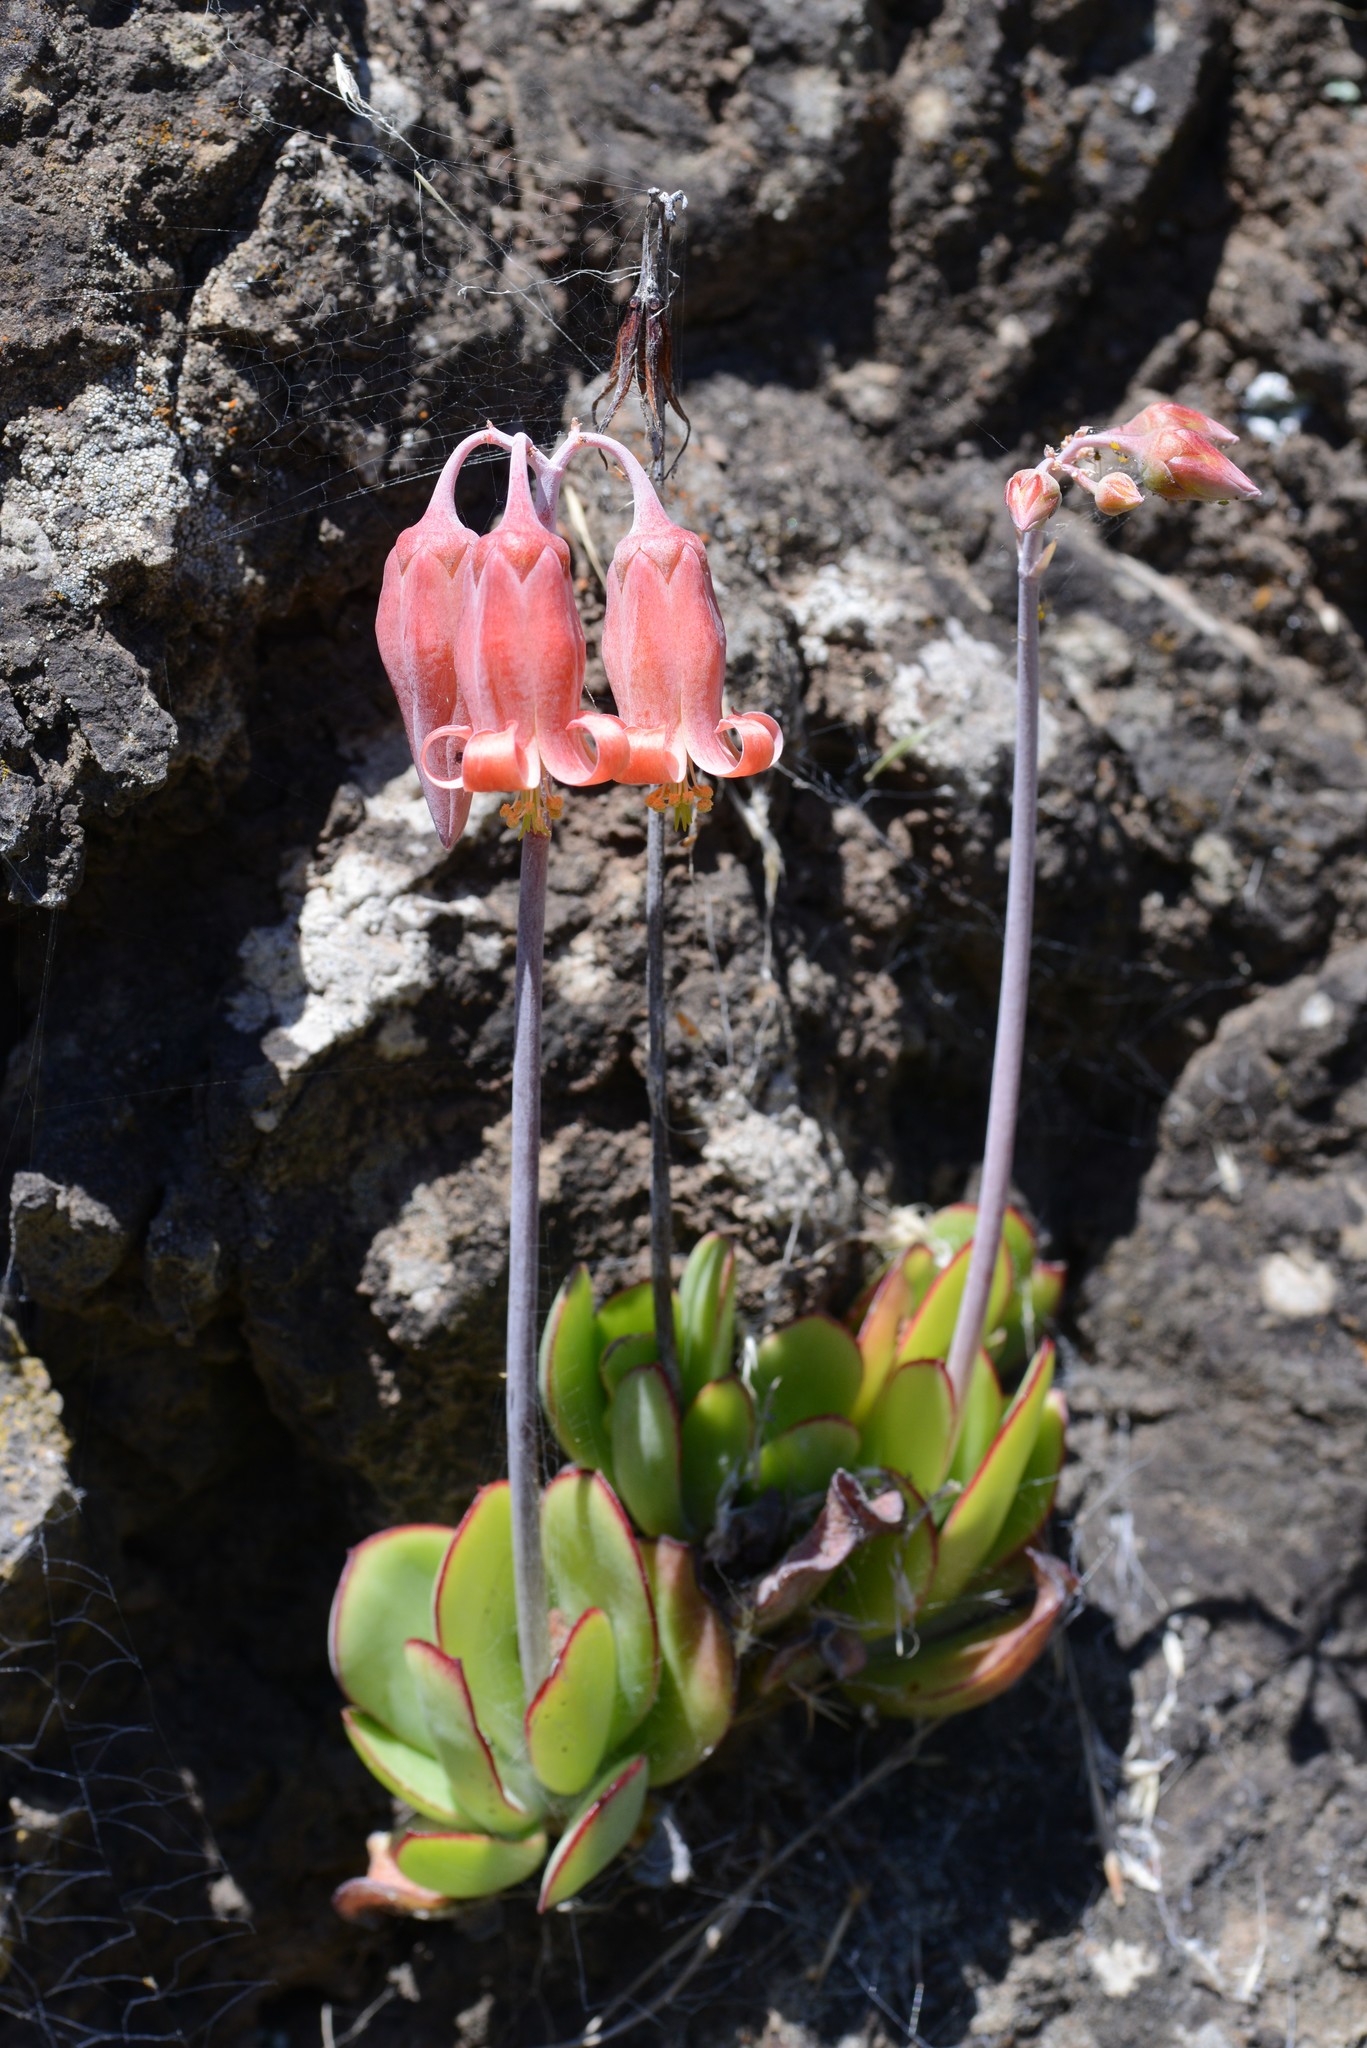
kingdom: Plantae
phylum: Tracheophyta
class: Magnoliopsida
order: Saxifragales
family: Crassulaceae
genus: Cotyledon
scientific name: Cotyledon orbiculata
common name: Pig's ear
